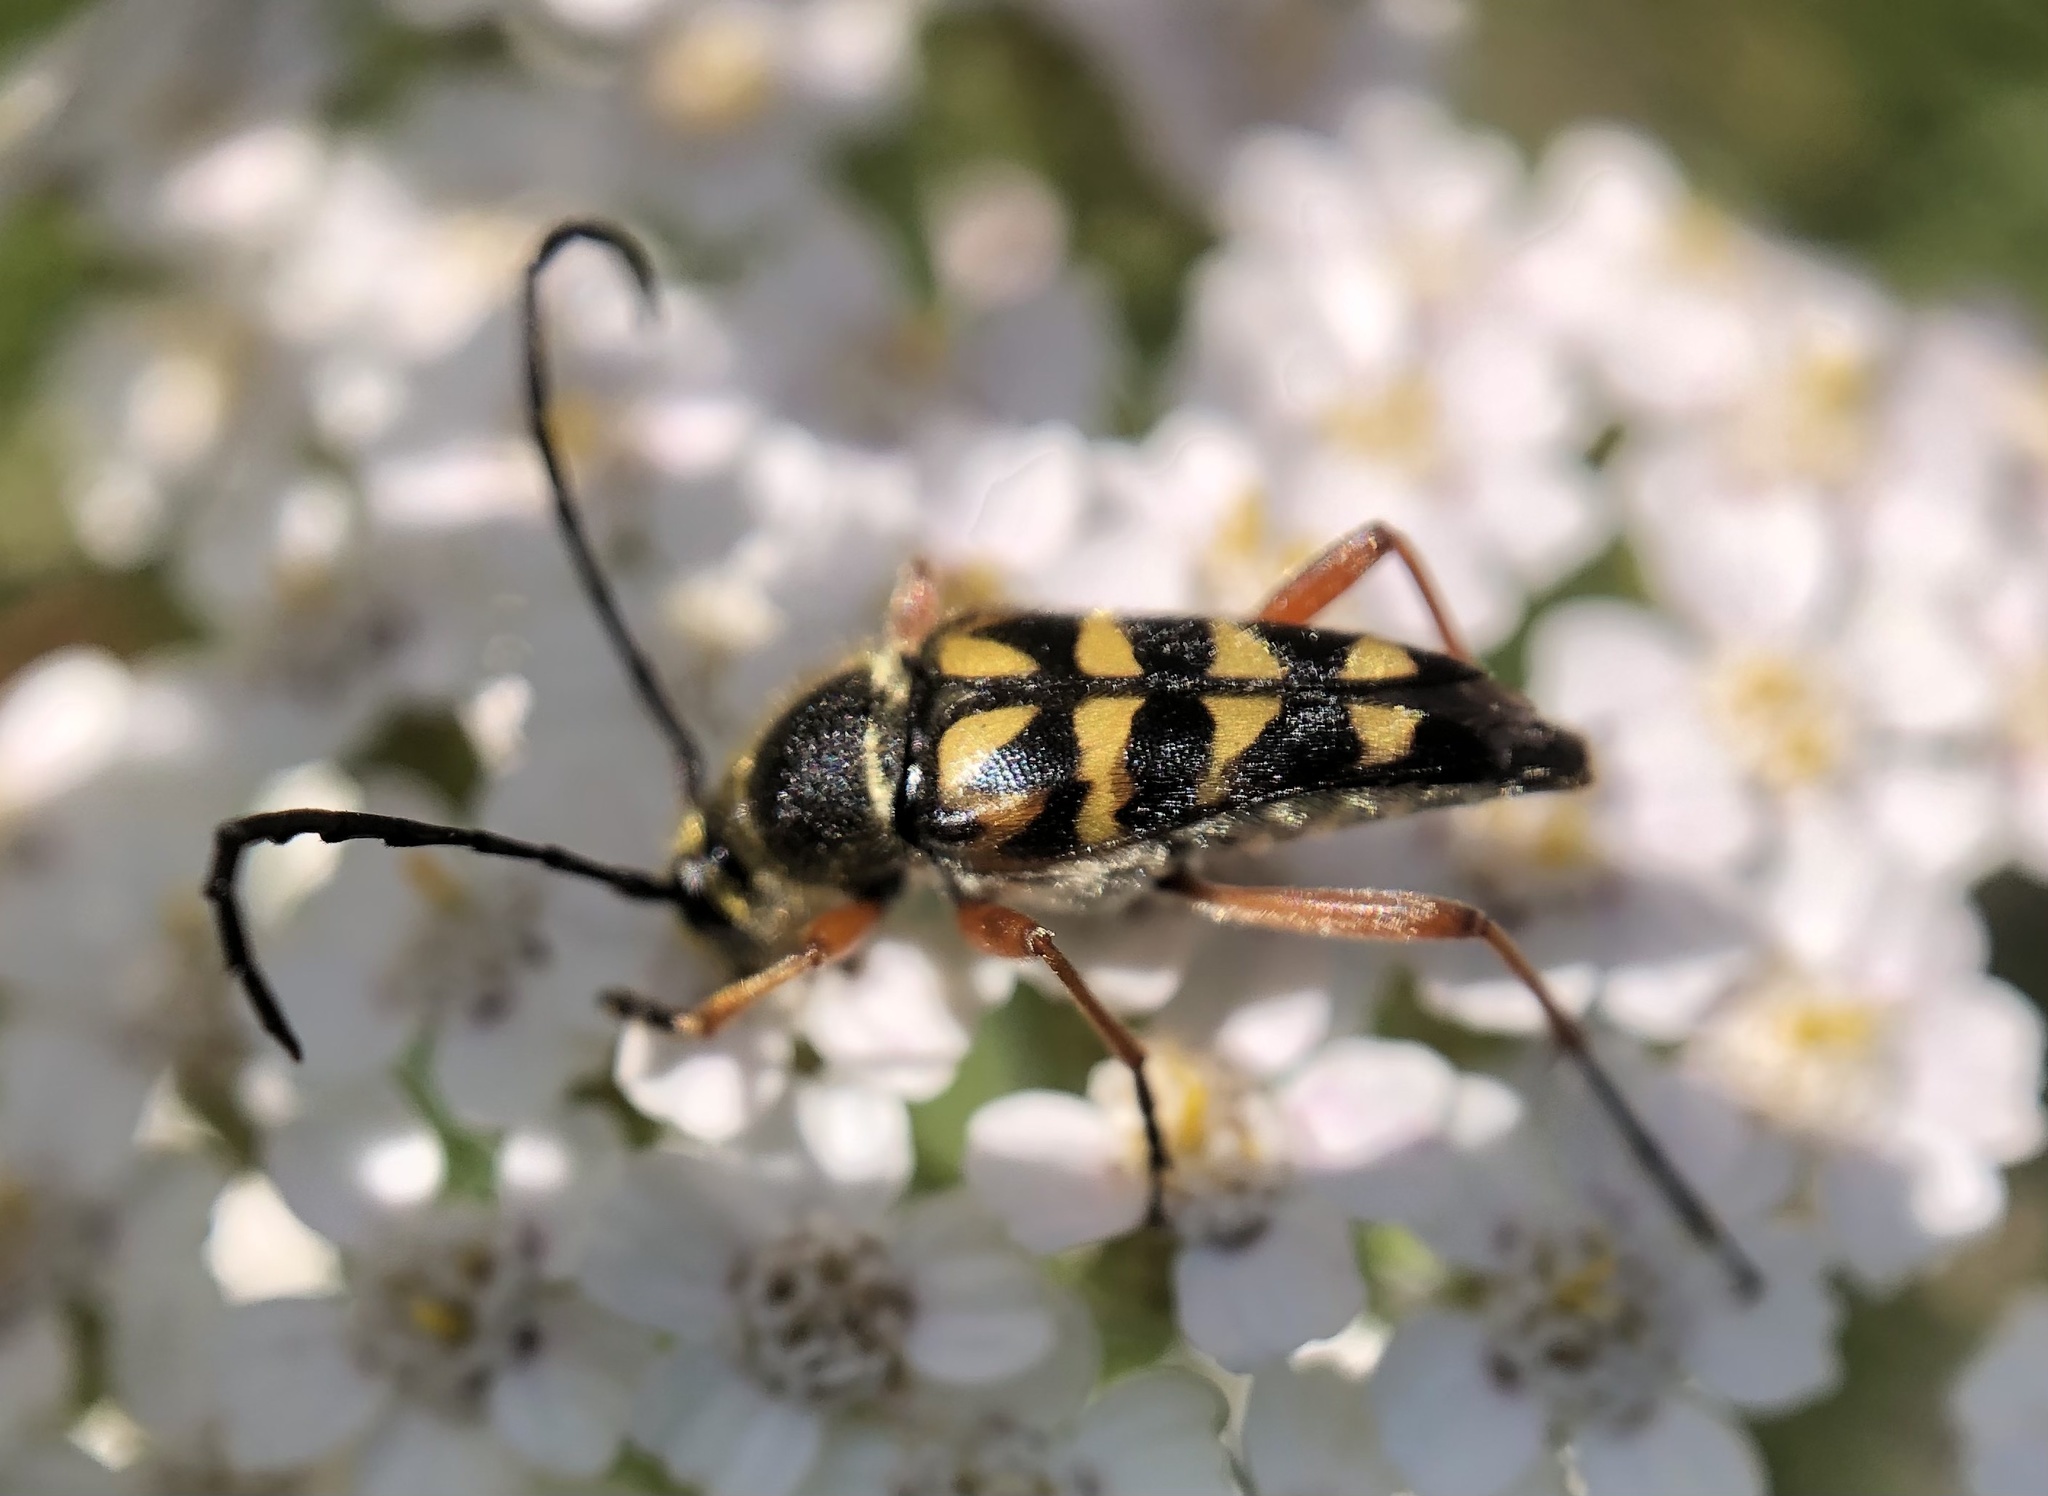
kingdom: Animalia
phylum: Arthropoda
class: Insecta
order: Coleoptera
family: Cerambycidae
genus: Typocerus
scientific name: Typocerus zebra
